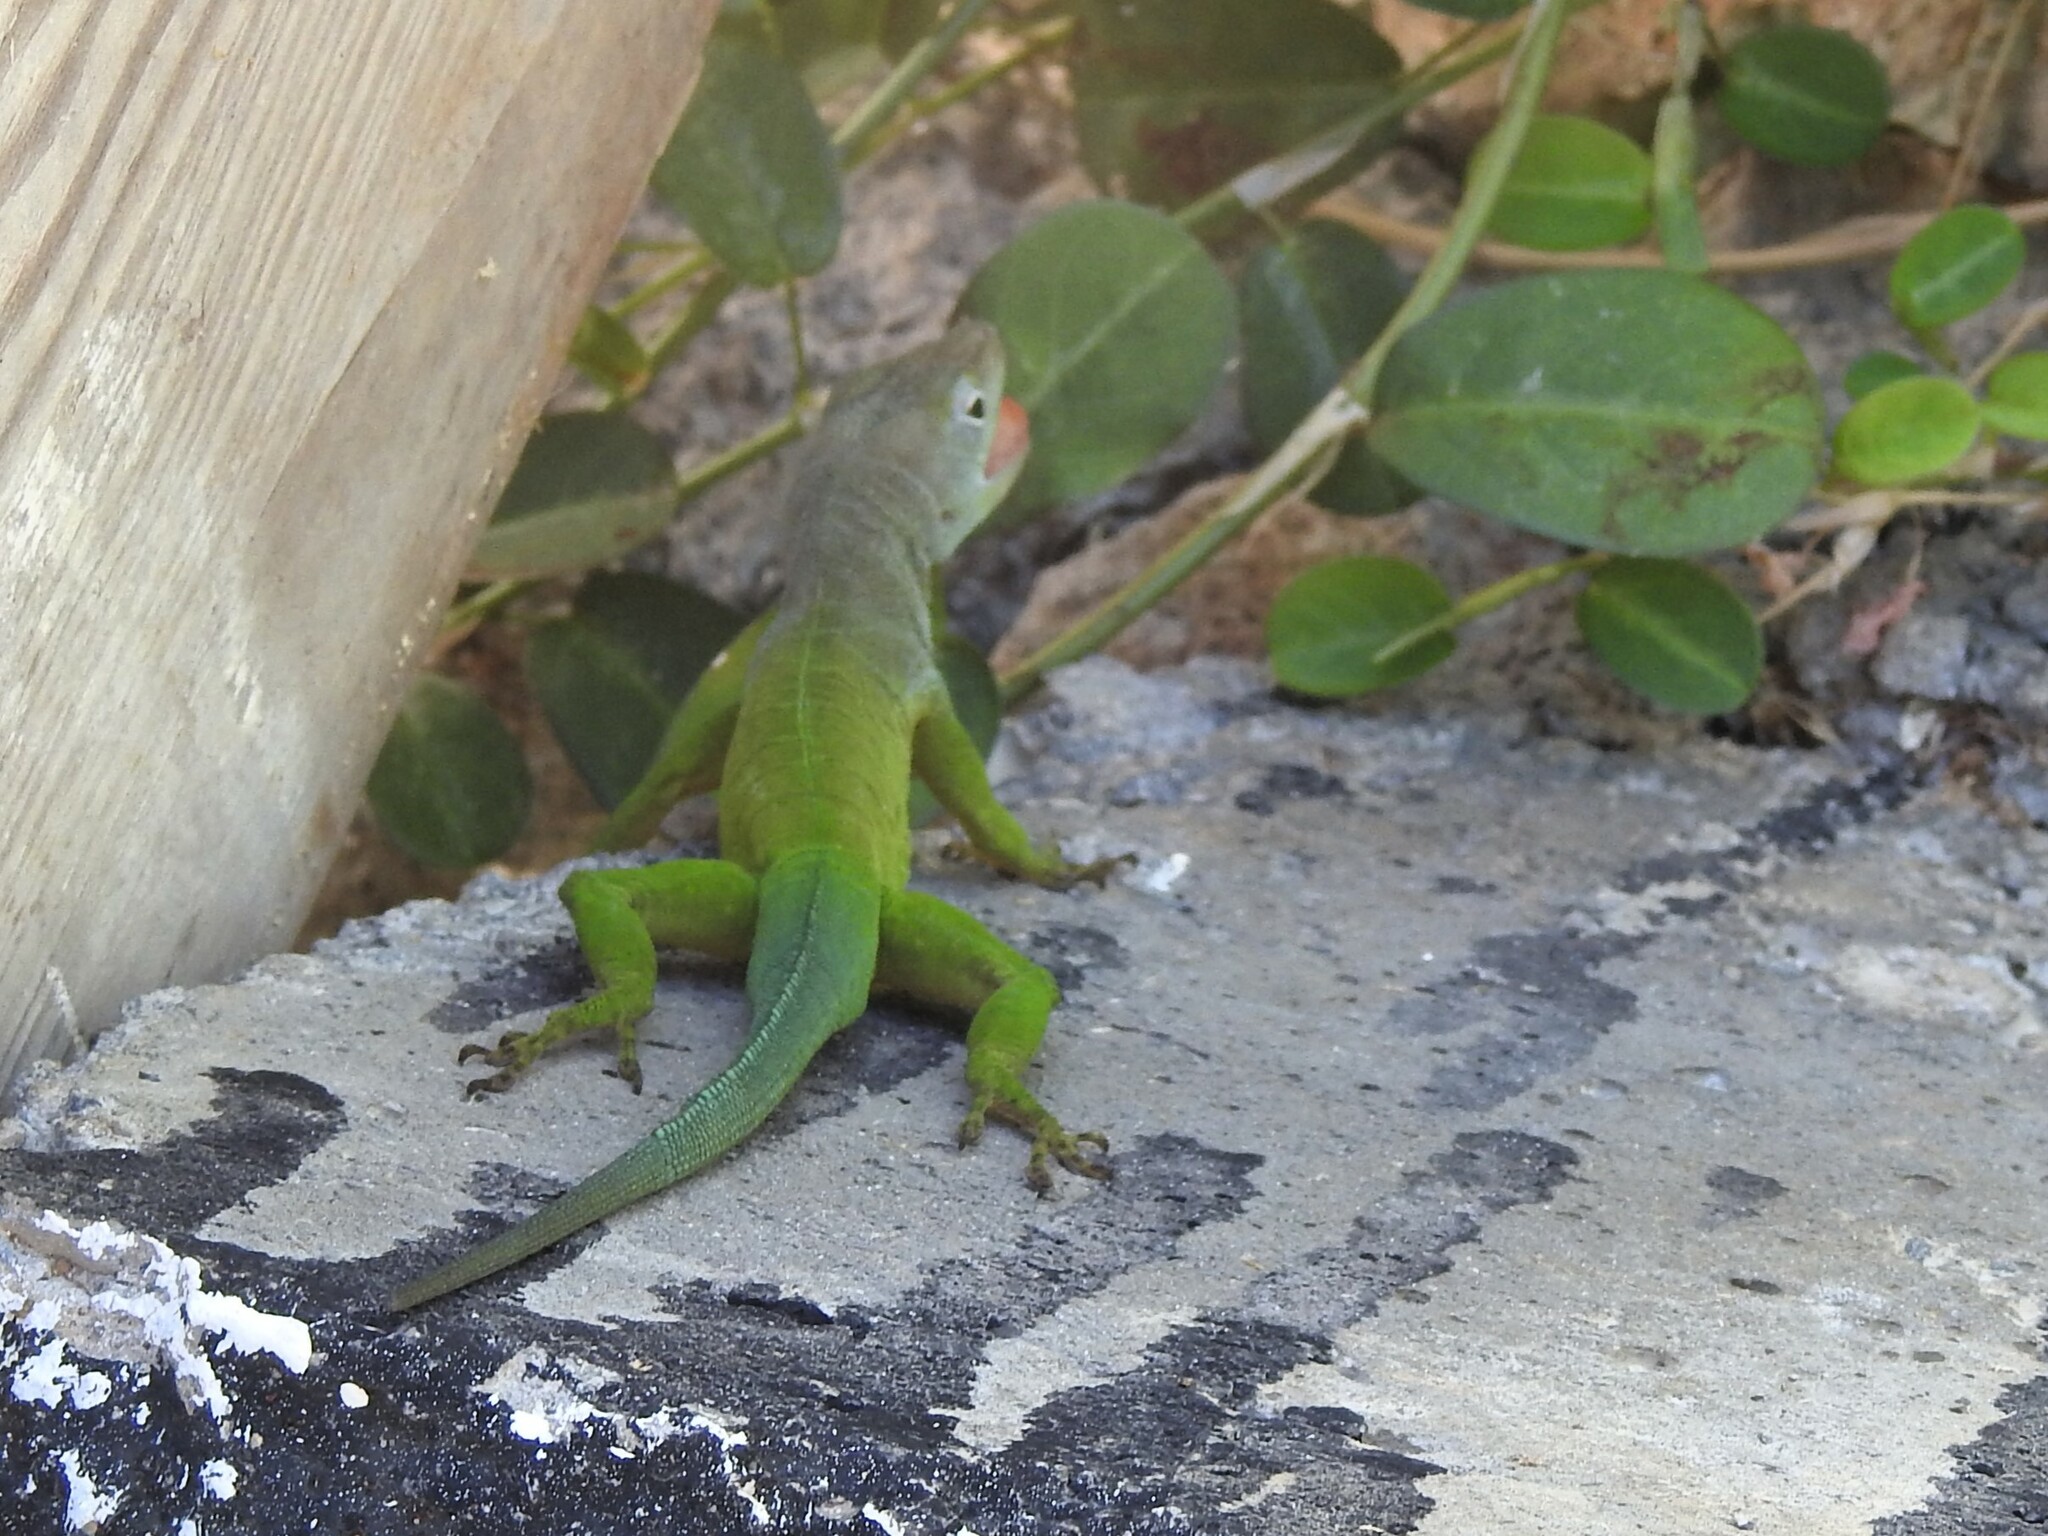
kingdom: Animalia
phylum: Chordata
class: Squamata
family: Dactyloidae
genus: Anolis
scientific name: Anolis marmoratus
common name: Guadeloupe anole
